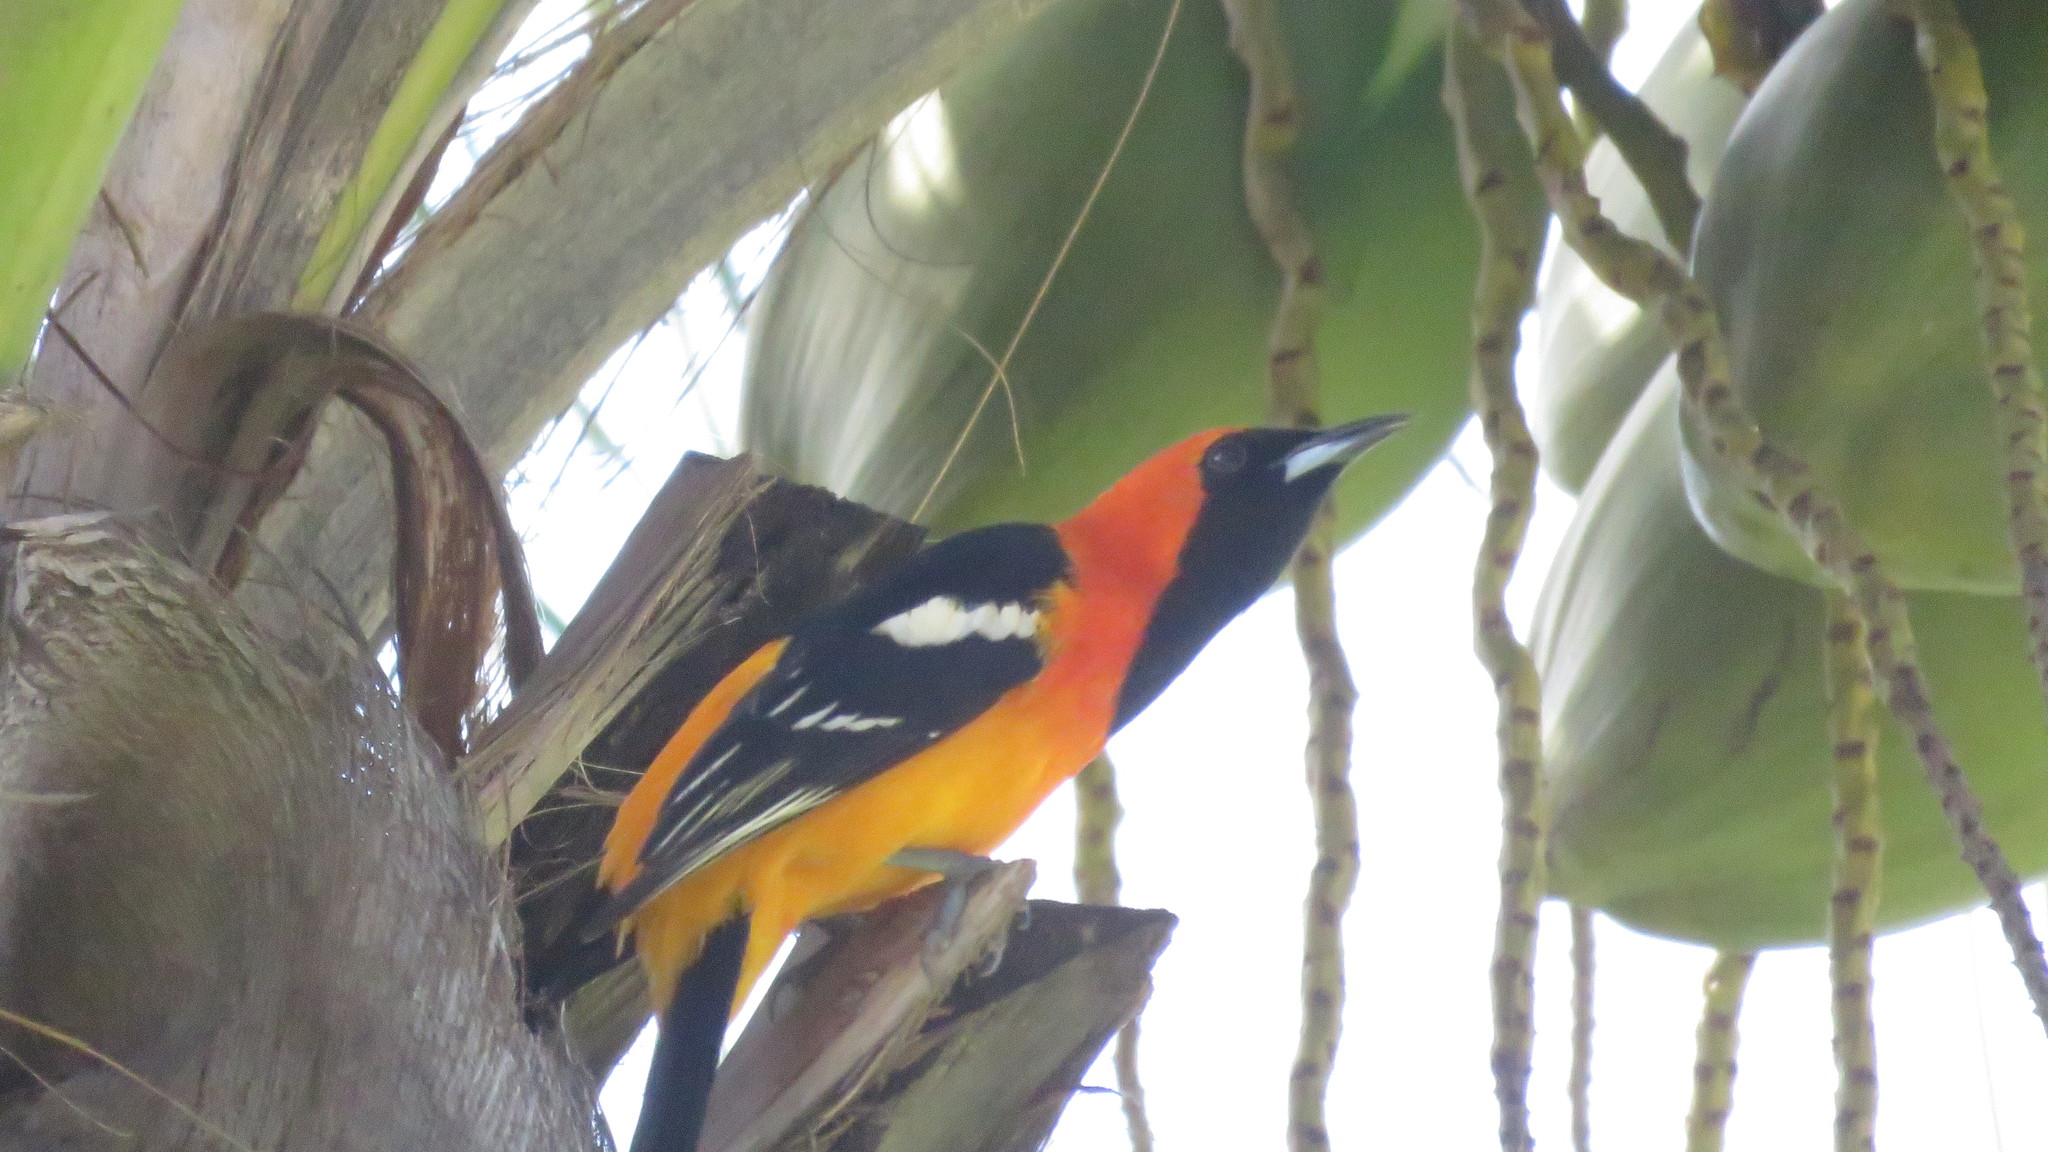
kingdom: Animalia
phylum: Chordata
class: Aves
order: Passeriformes
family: Icteridae
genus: Icterus
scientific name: Icterus cucullatus
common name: Hooded oriole
